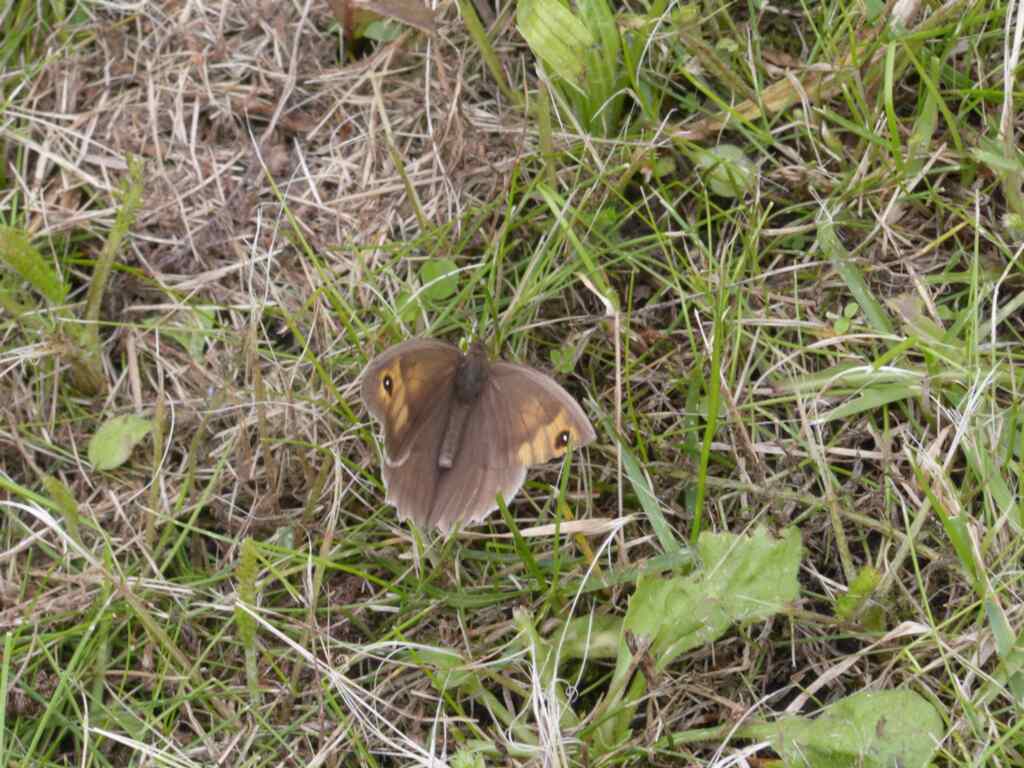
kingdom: Animalia
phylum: Arthropoda
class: Insecta
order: Lepidoptera
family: Nymphalidae
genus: Maniola
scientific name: Maniola jurtina
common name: Meadow brown
